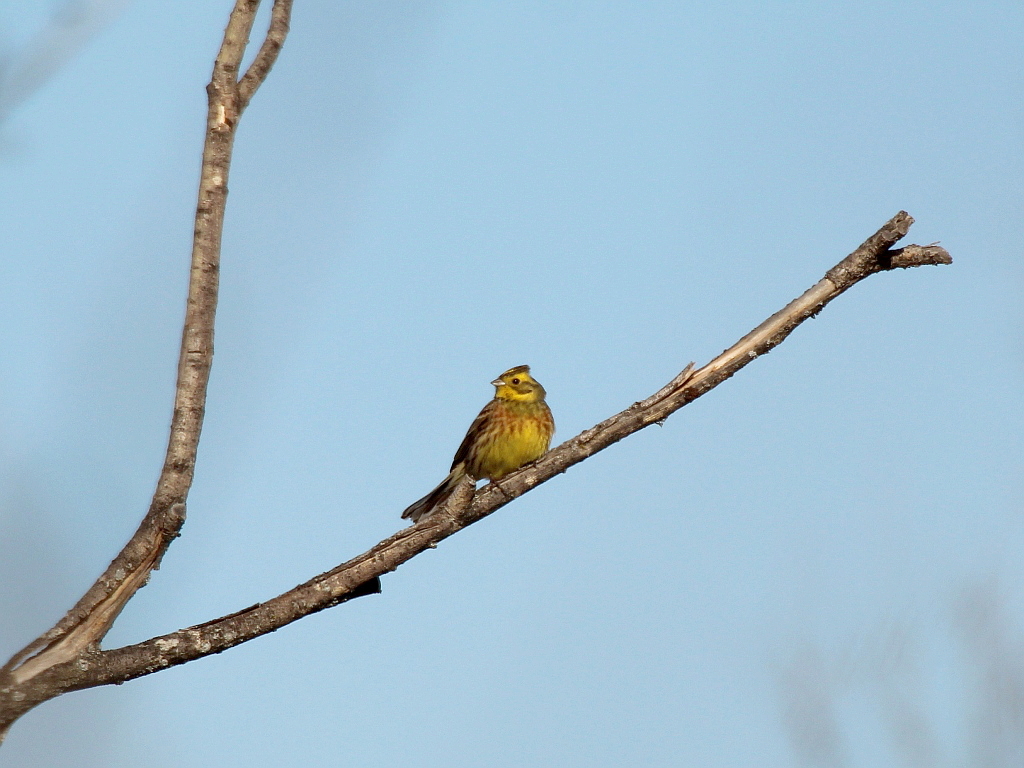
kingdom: Animalia
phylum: Chordata
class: Aves
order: Passeriformes
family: Emberizidae
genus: Emberiza
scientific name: Emberiza citrinella
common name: Yellowhammer
